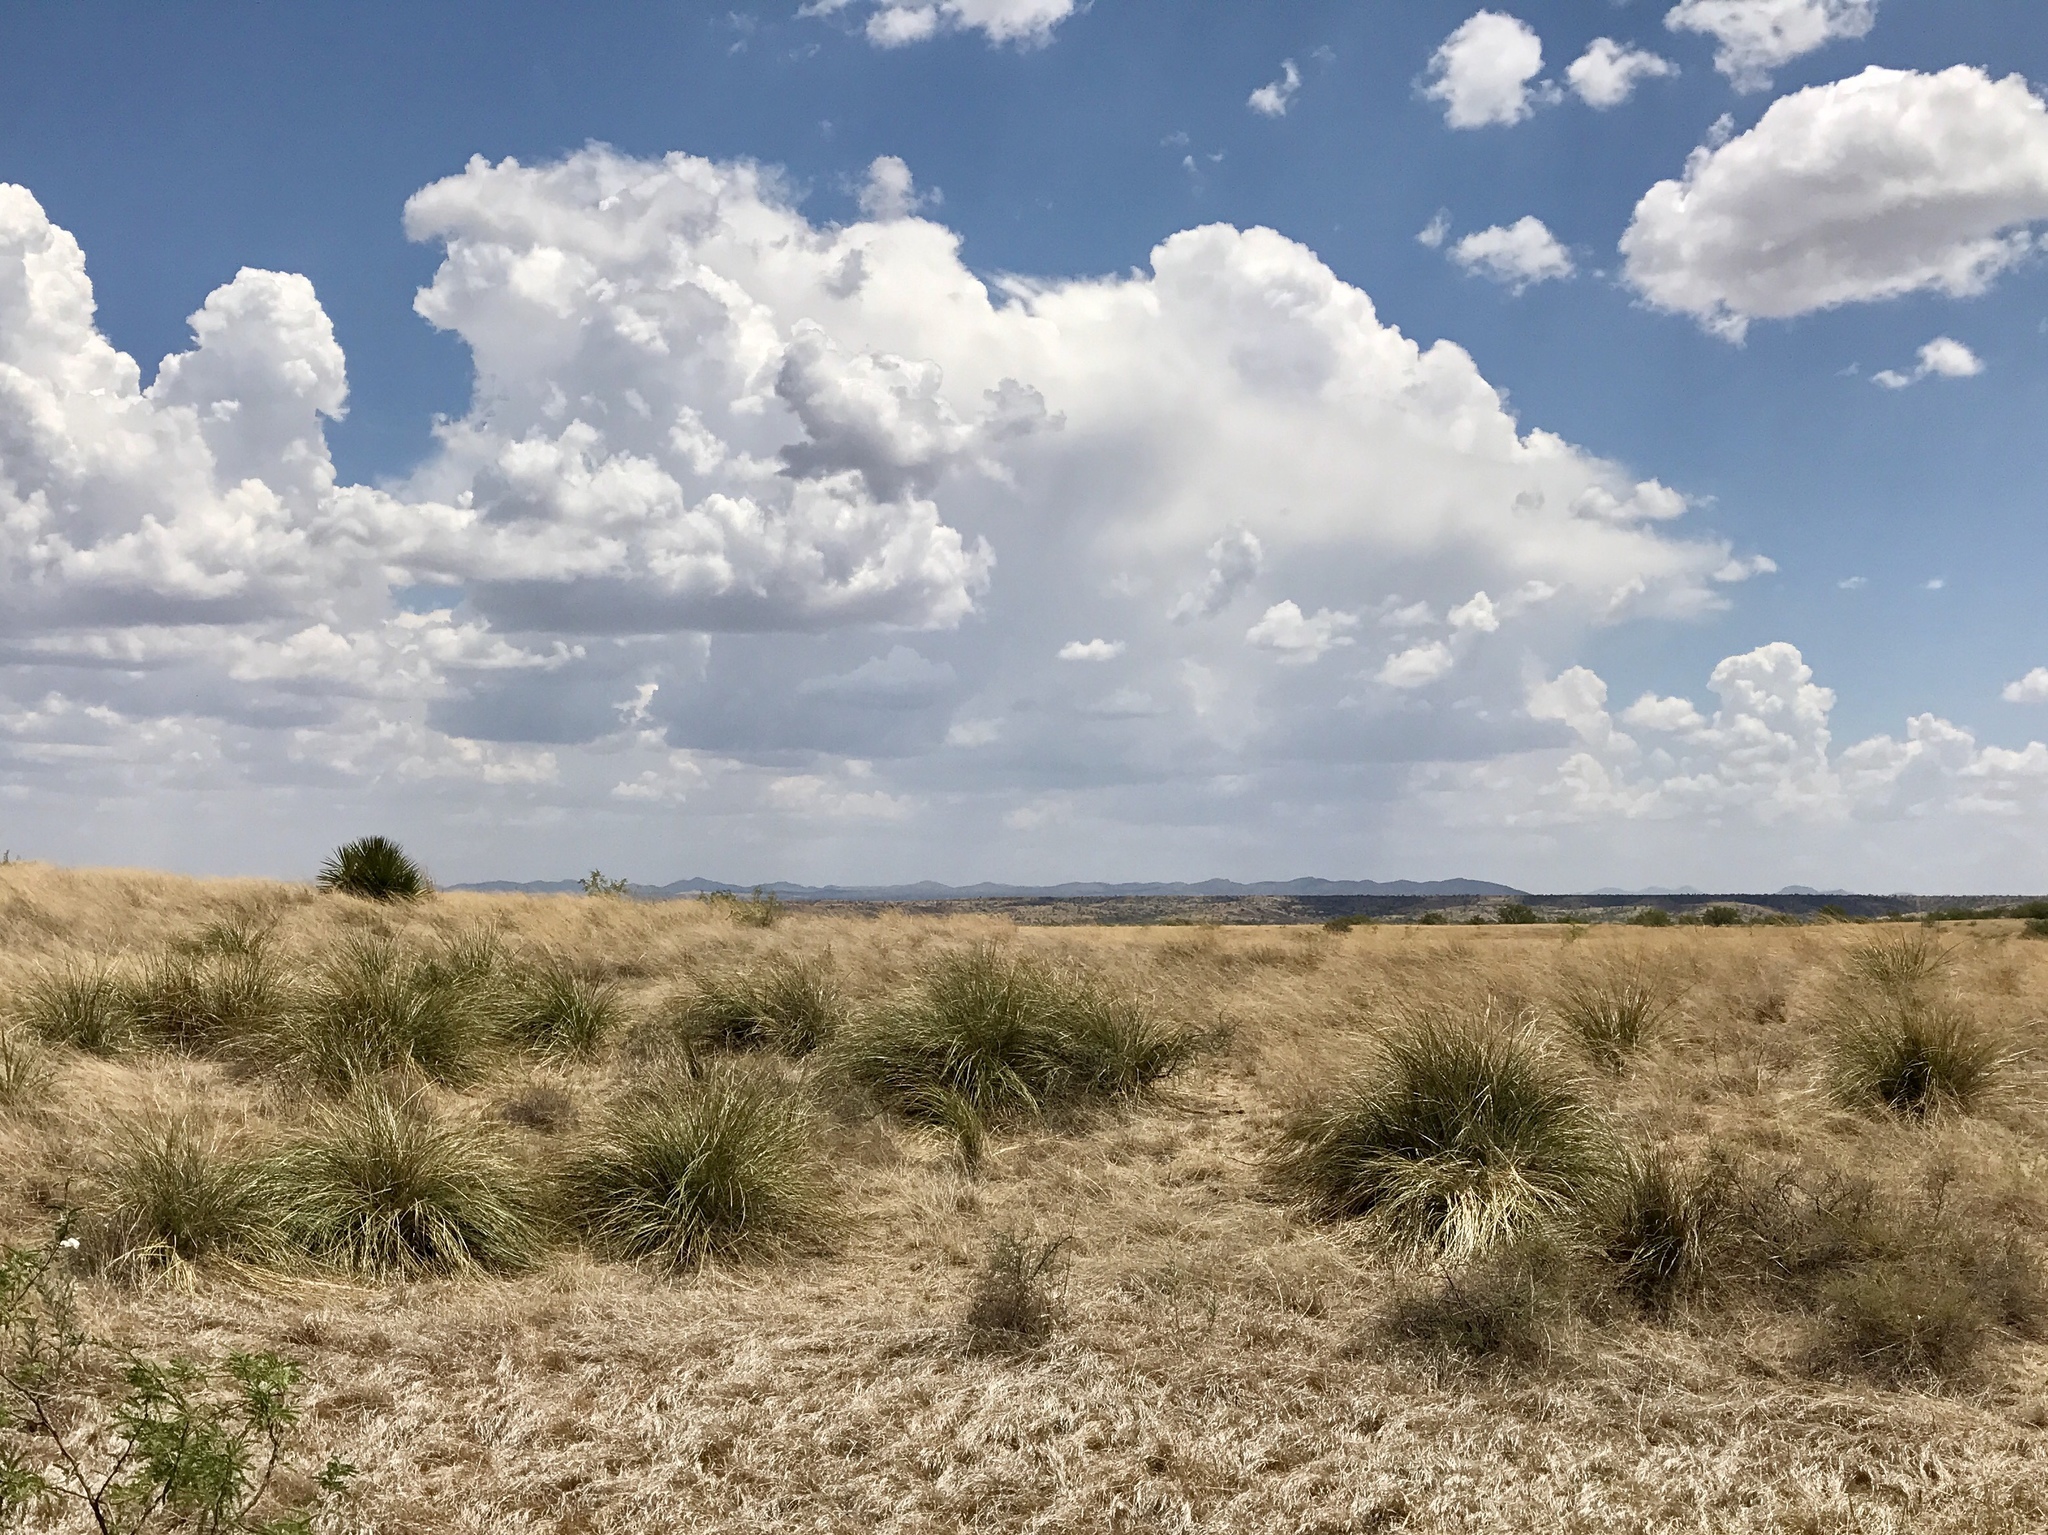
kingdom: Plantae
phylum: Tracheophyta
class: Liliopsida
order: Asparagales
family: Asparagaceae
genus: Nolina
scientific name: Nolina microcarpa
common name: Bear-grass
